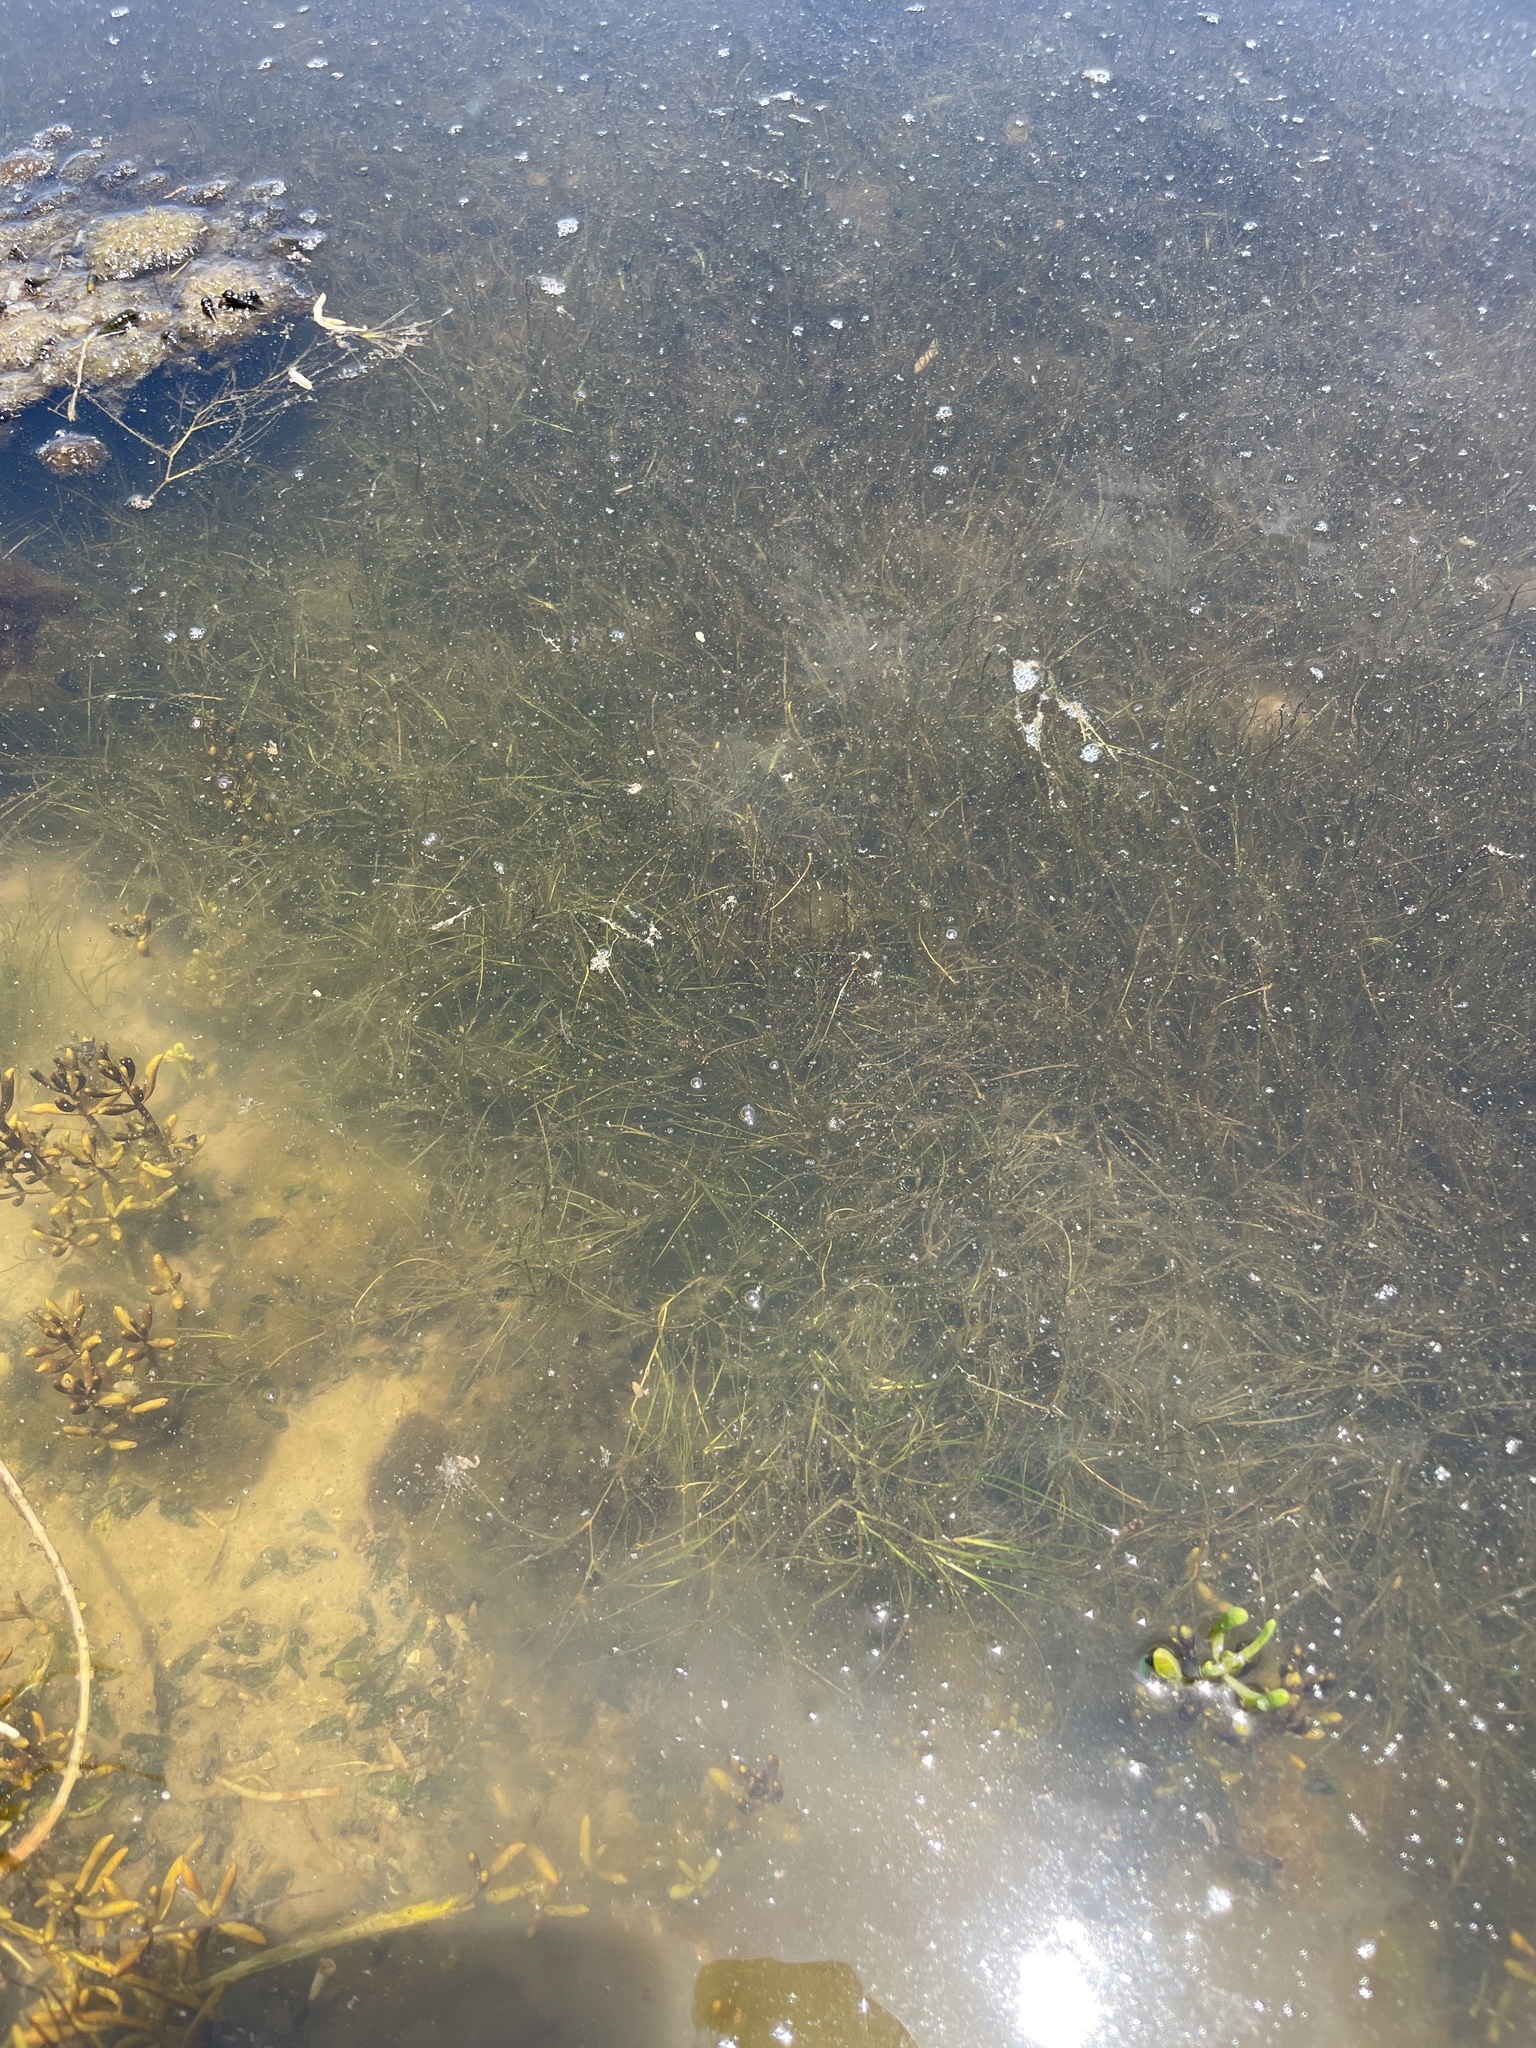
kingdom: Plantae
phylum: Tracheophyta
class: Liliopsida
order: Alismatales
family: Ruppiaceae
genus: Ruppia
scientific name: Ruppia maritima
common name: Beaked tasselweed
